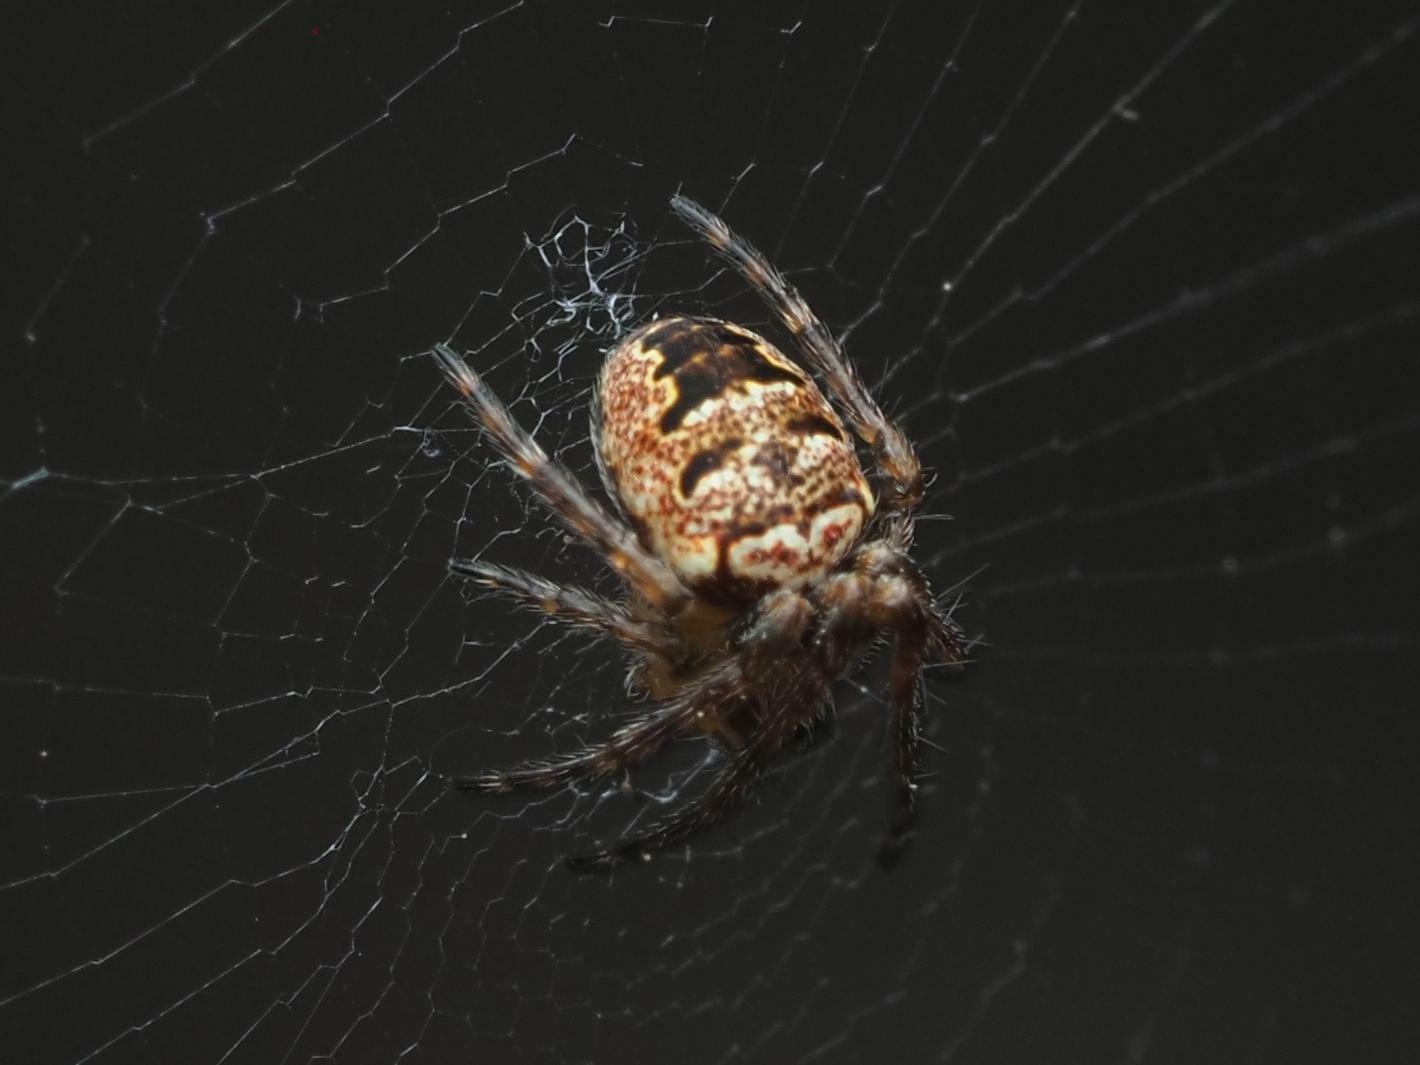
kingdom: Animalia
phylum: Arthropoda
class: Arachnida
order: Araneae
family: Araneidae
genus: Zilla
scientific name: Zilla diodia
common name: Zilla diodia
